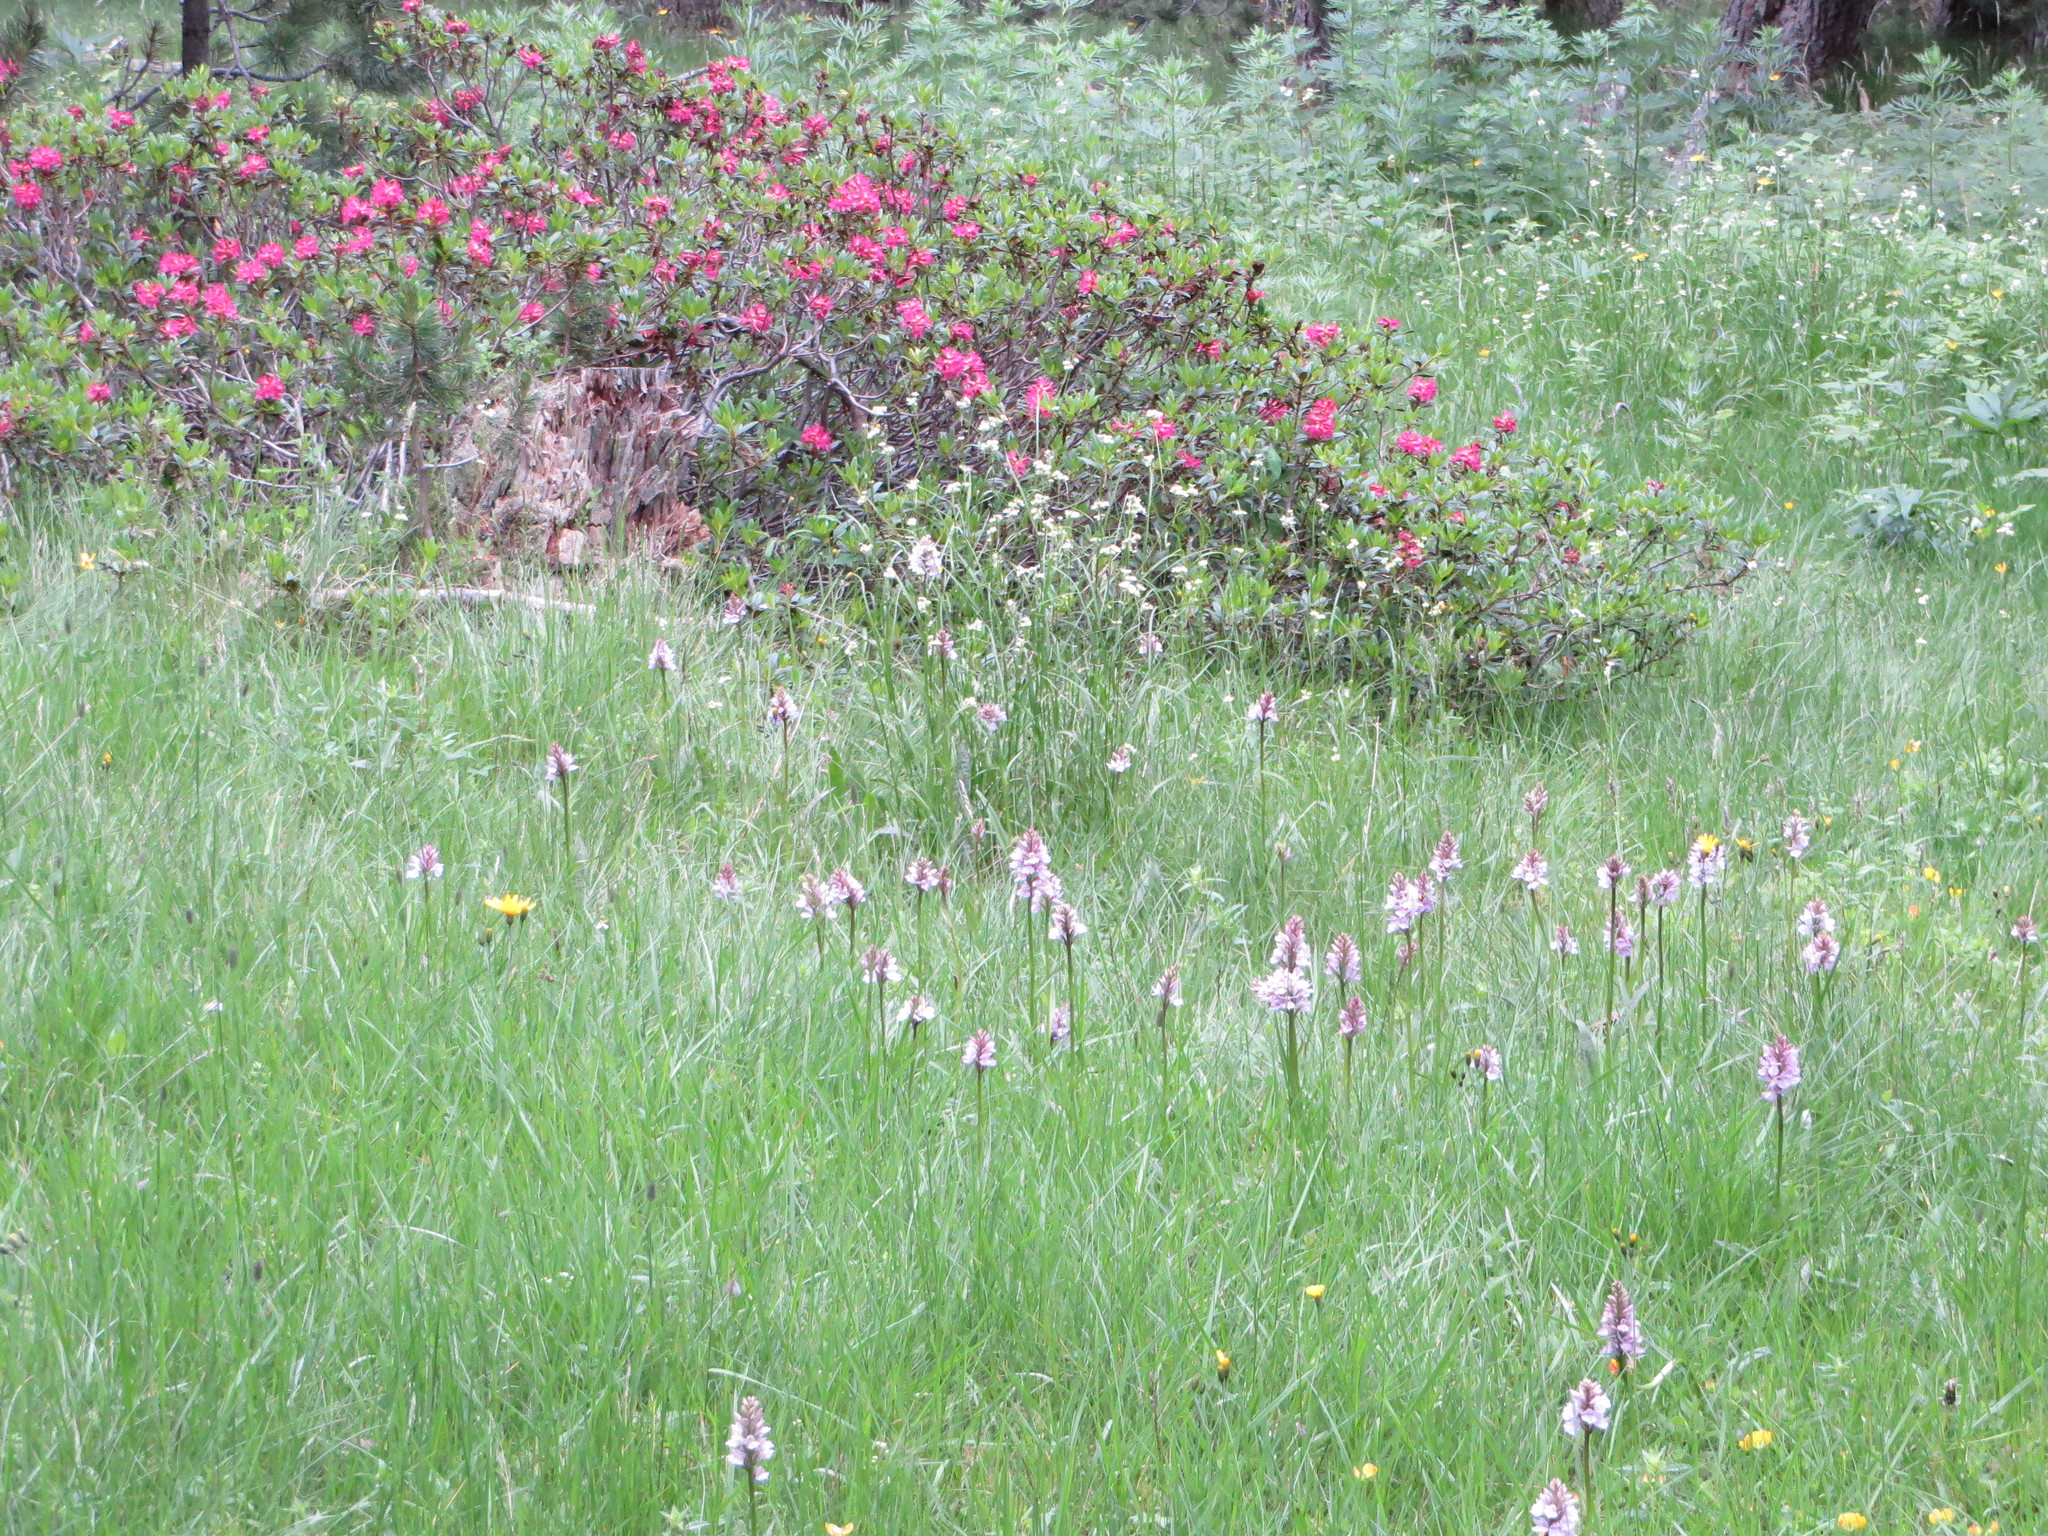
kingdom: Plantae
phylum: Tracheophyta
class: Magnoliopsida
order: Ericales
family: Ericaceae
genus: Rhododendron
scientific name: Rhododendron ferrugineum
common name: Alpenrose
